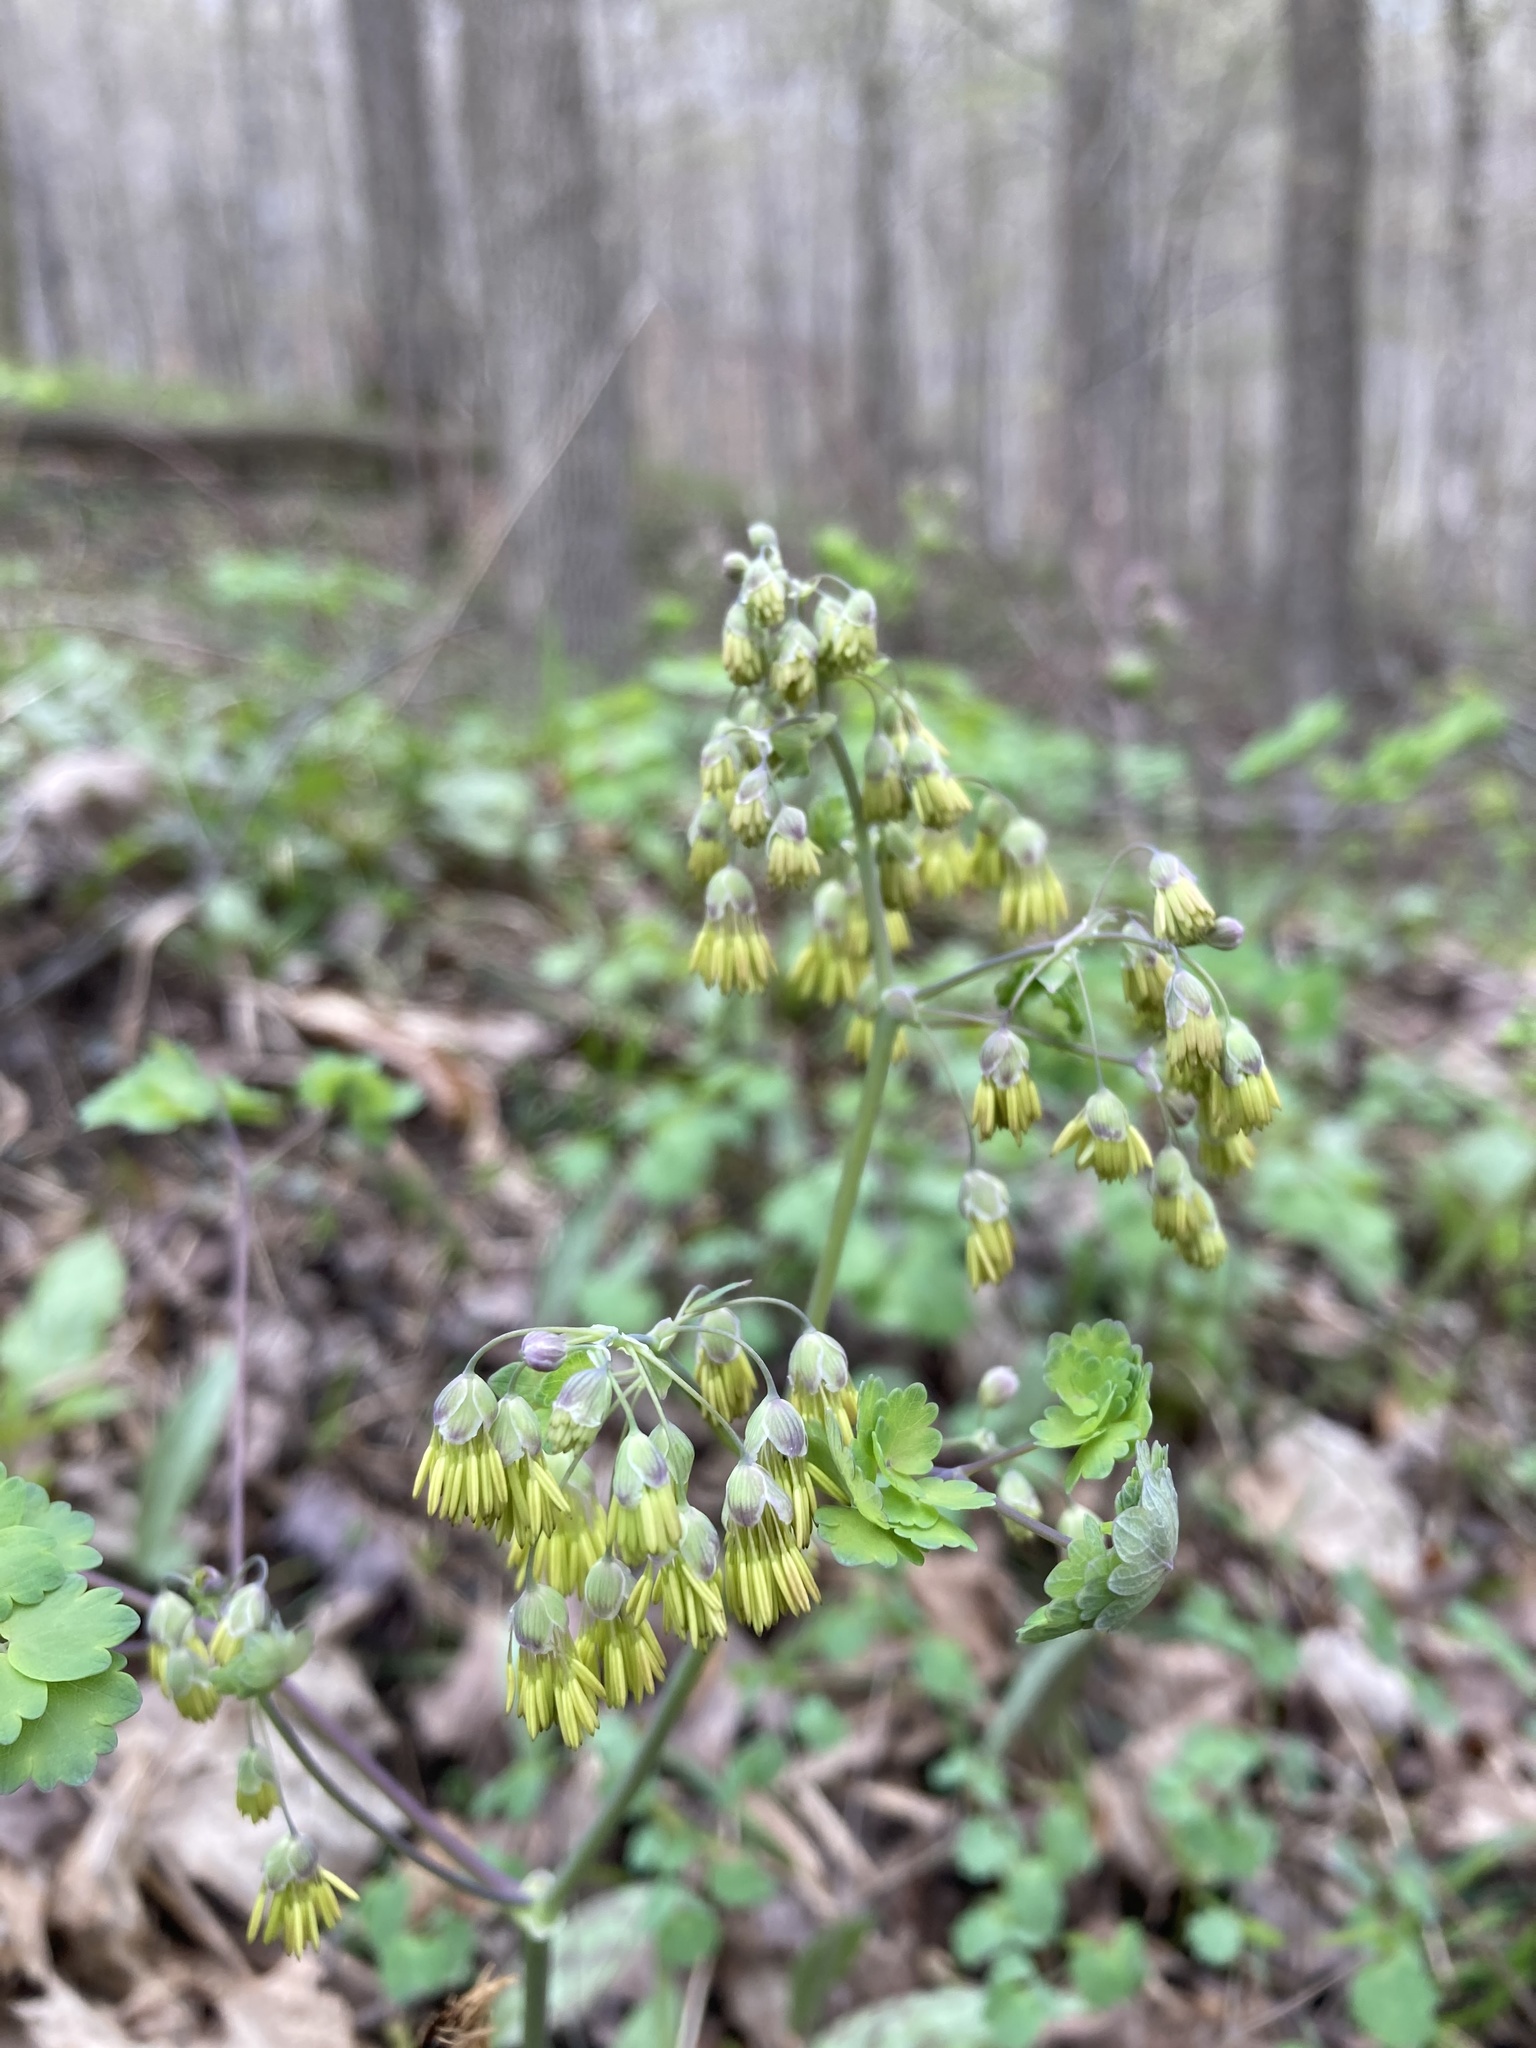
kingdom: Plantae
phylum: Tracheophyta
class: Magnoliopsida
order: Ranunculales
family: Ranunculaceae
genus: Thalictrum
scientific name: Thalictrum dioicum
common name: Early meadow-rue
